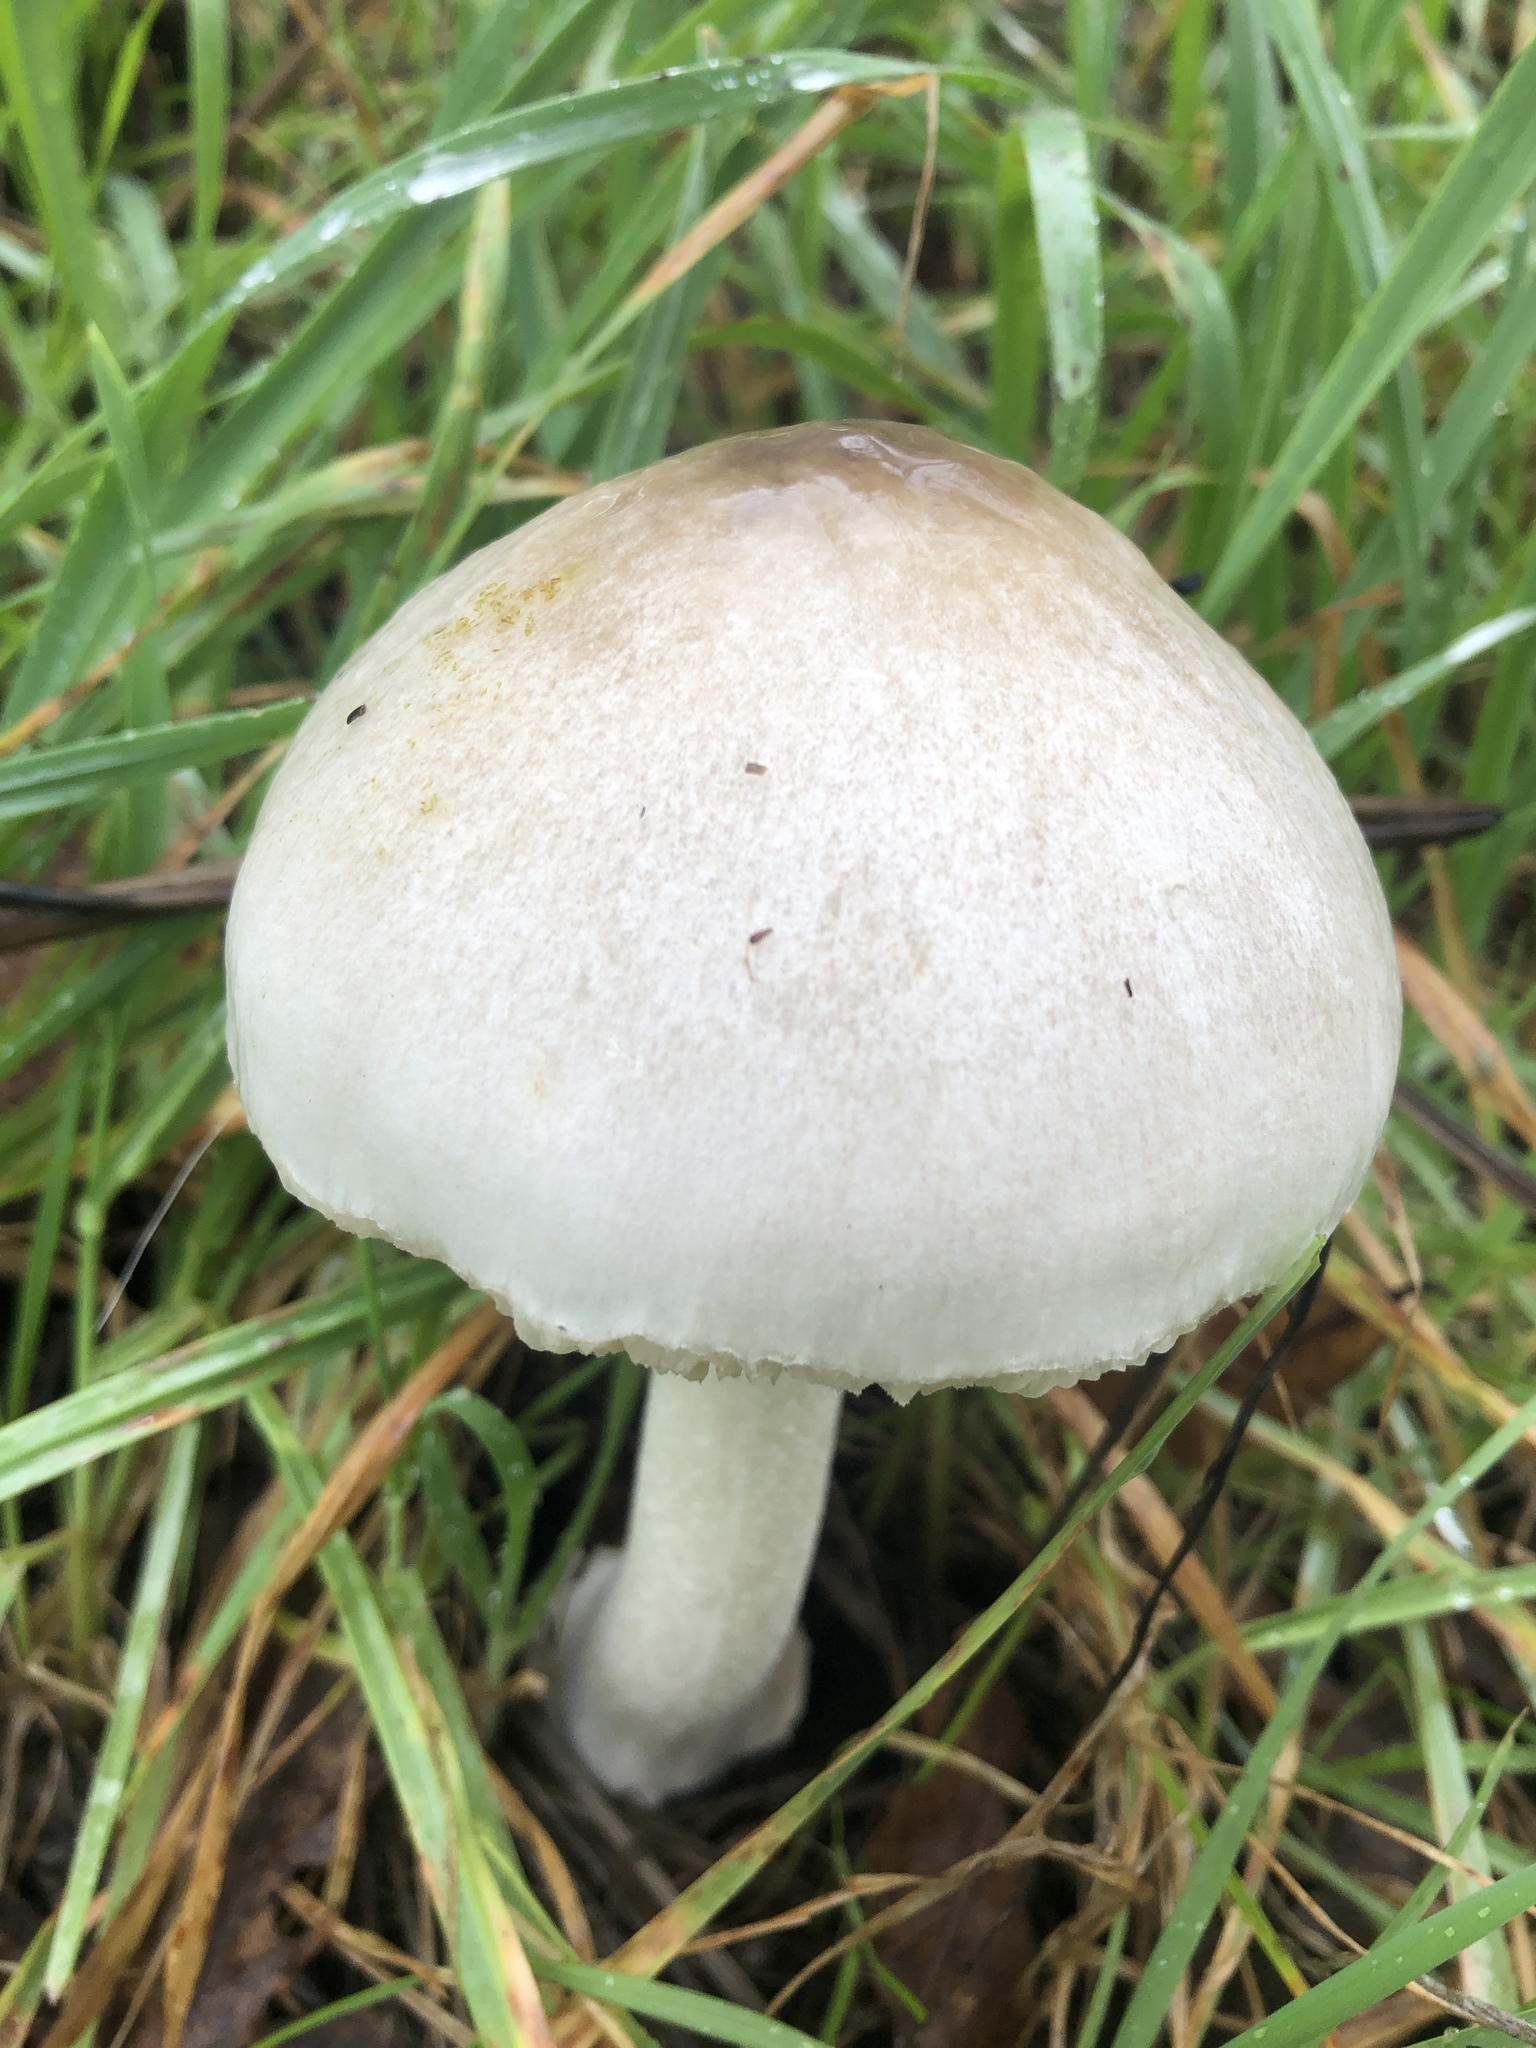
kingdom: Fungi
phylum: Basidiomycota
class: Agaricomycetes
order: Agaricales
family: Pluteaceae
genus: Volvopluteus
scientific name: Volvopluteus gloiocephalus
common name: Stubble rosegill
